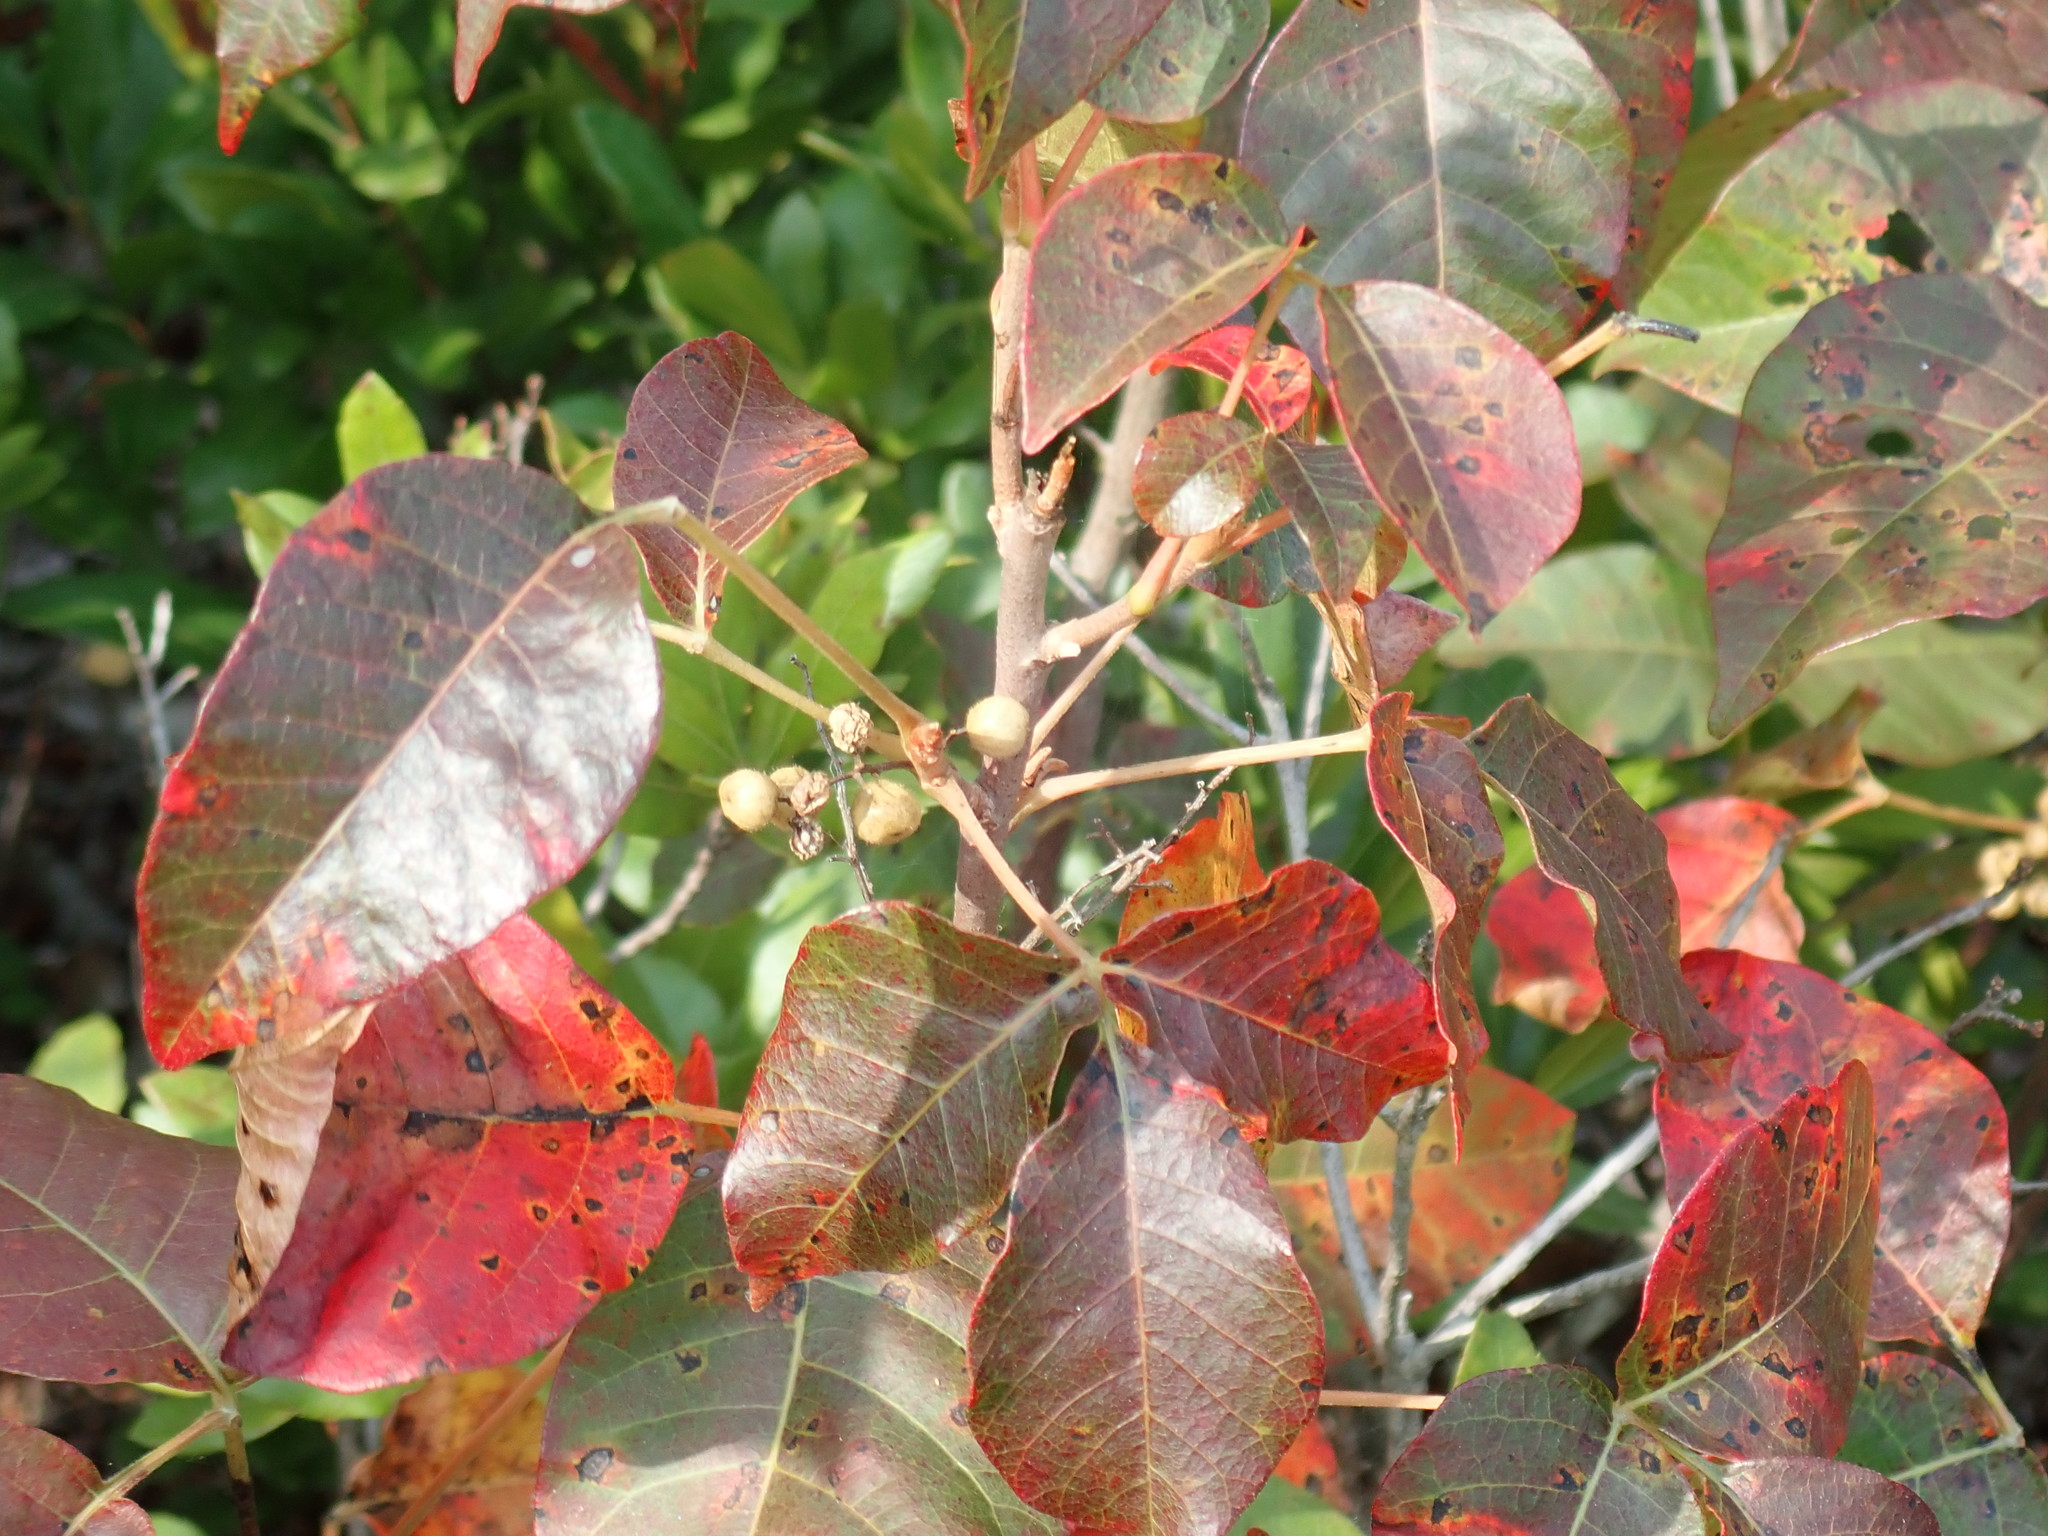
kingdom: Plantae
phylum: Tracheophyta
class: Magnoliopsida
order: Sapindales
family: Anacardiaceae
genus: Toxicodendron
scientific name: Toxicodendron radicans
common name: Poison ivy
